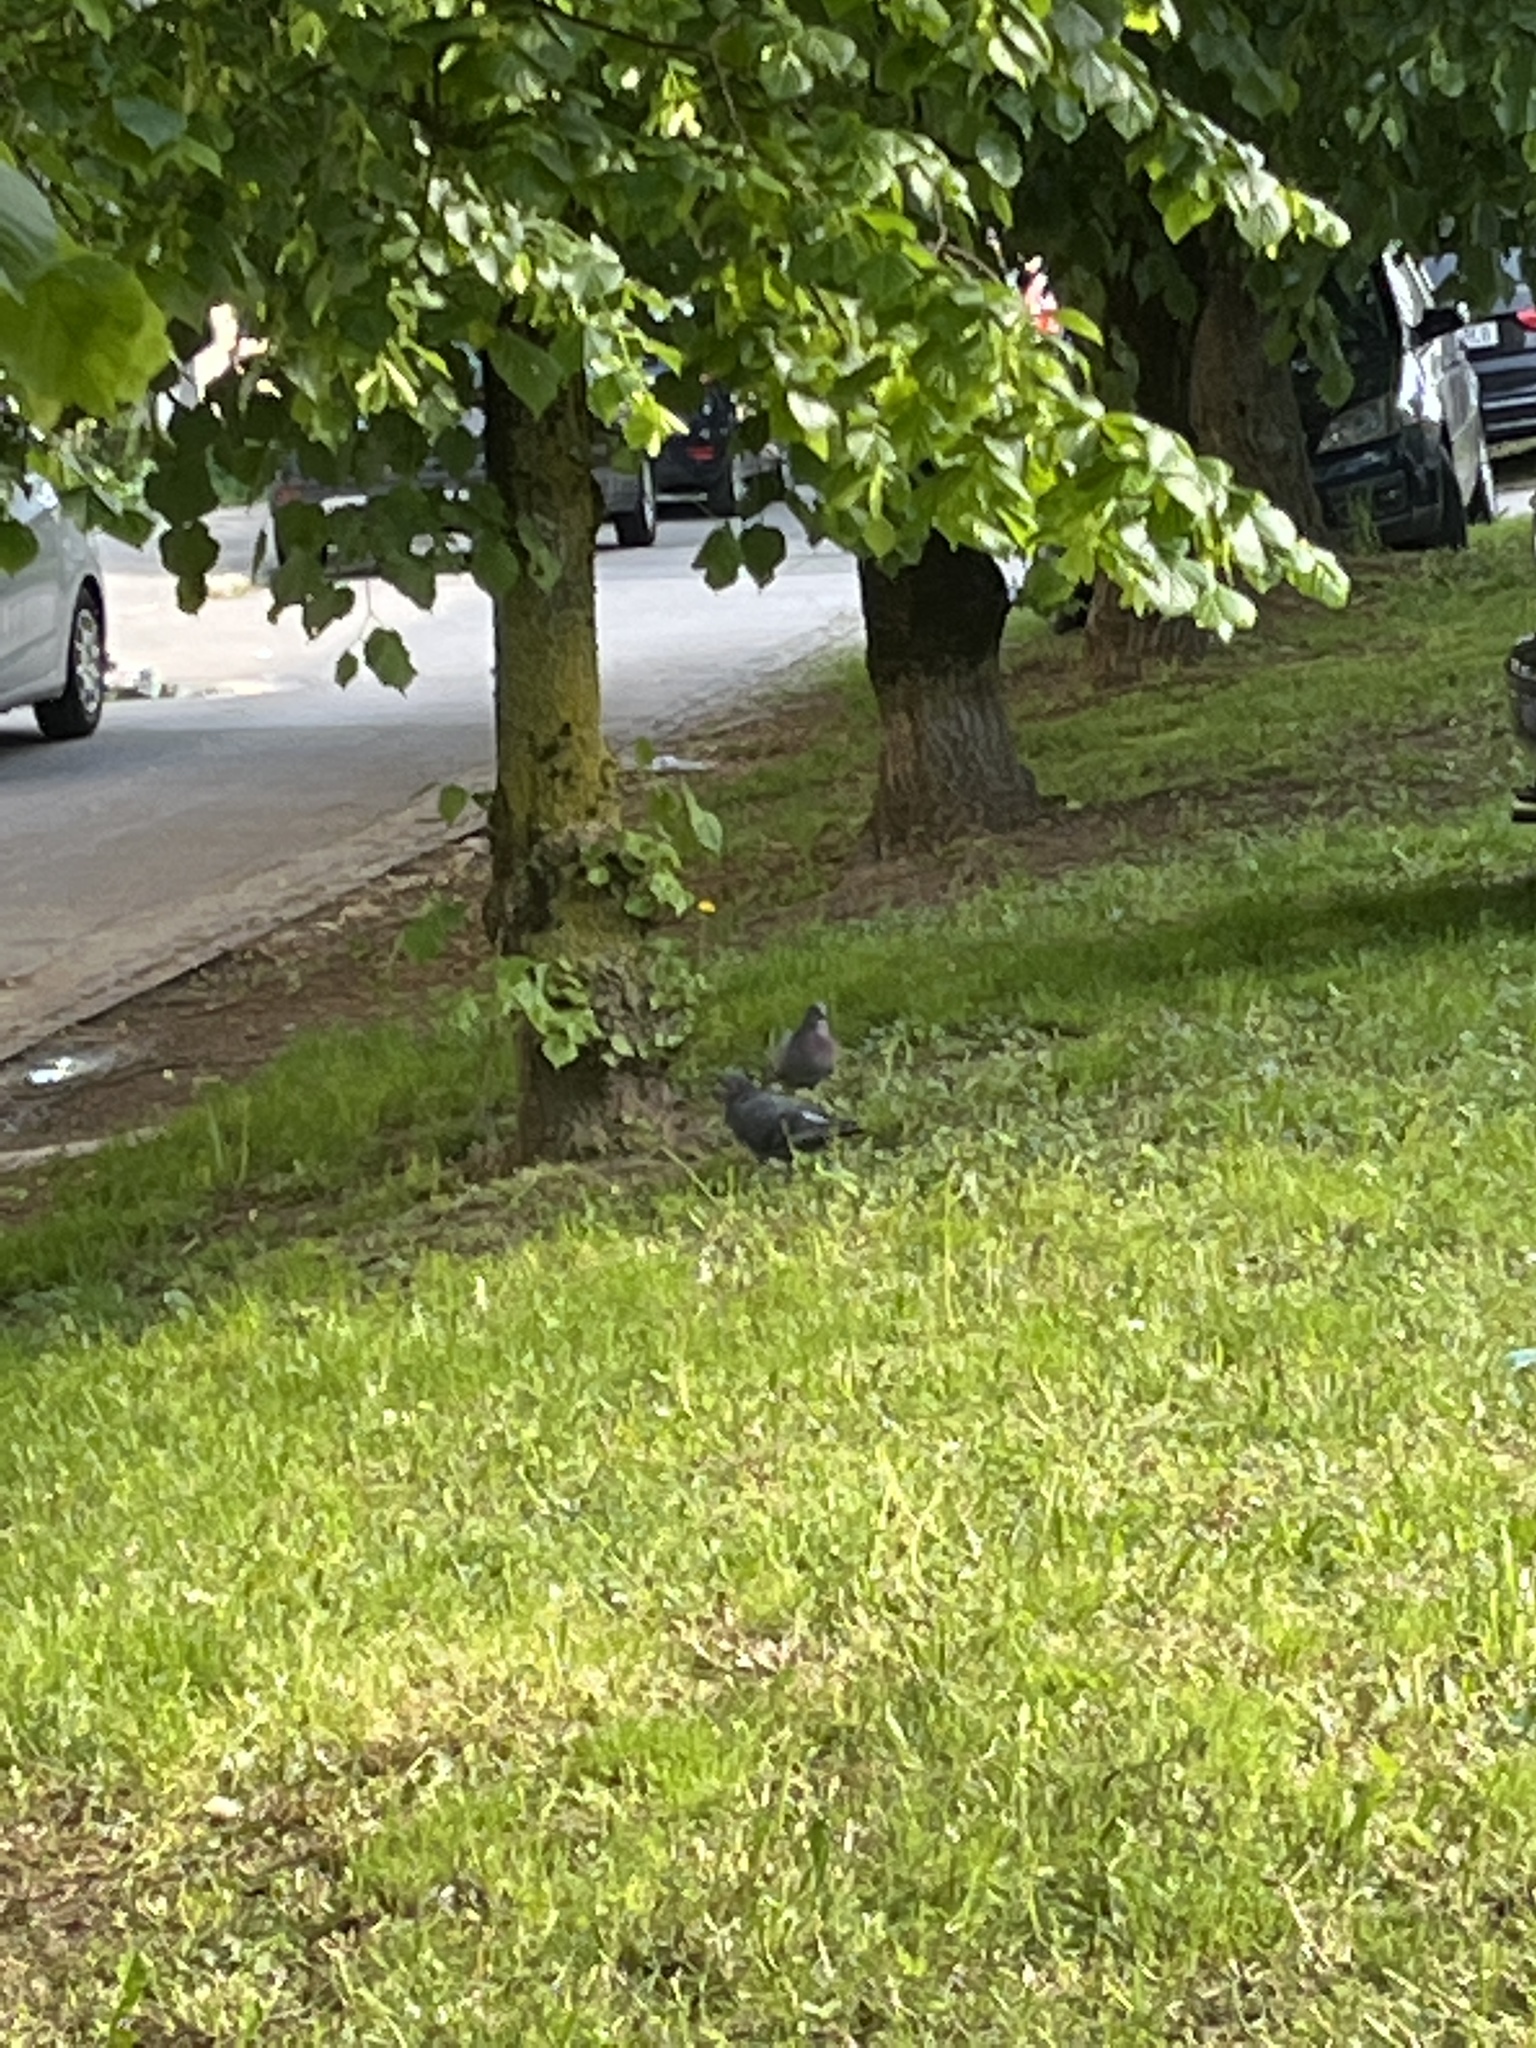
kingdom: Animalia
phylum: Chordata
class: Aves
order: Columbiformes
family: Columbidae
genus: Columba
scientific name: Columba livia
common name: Rock pigeon
